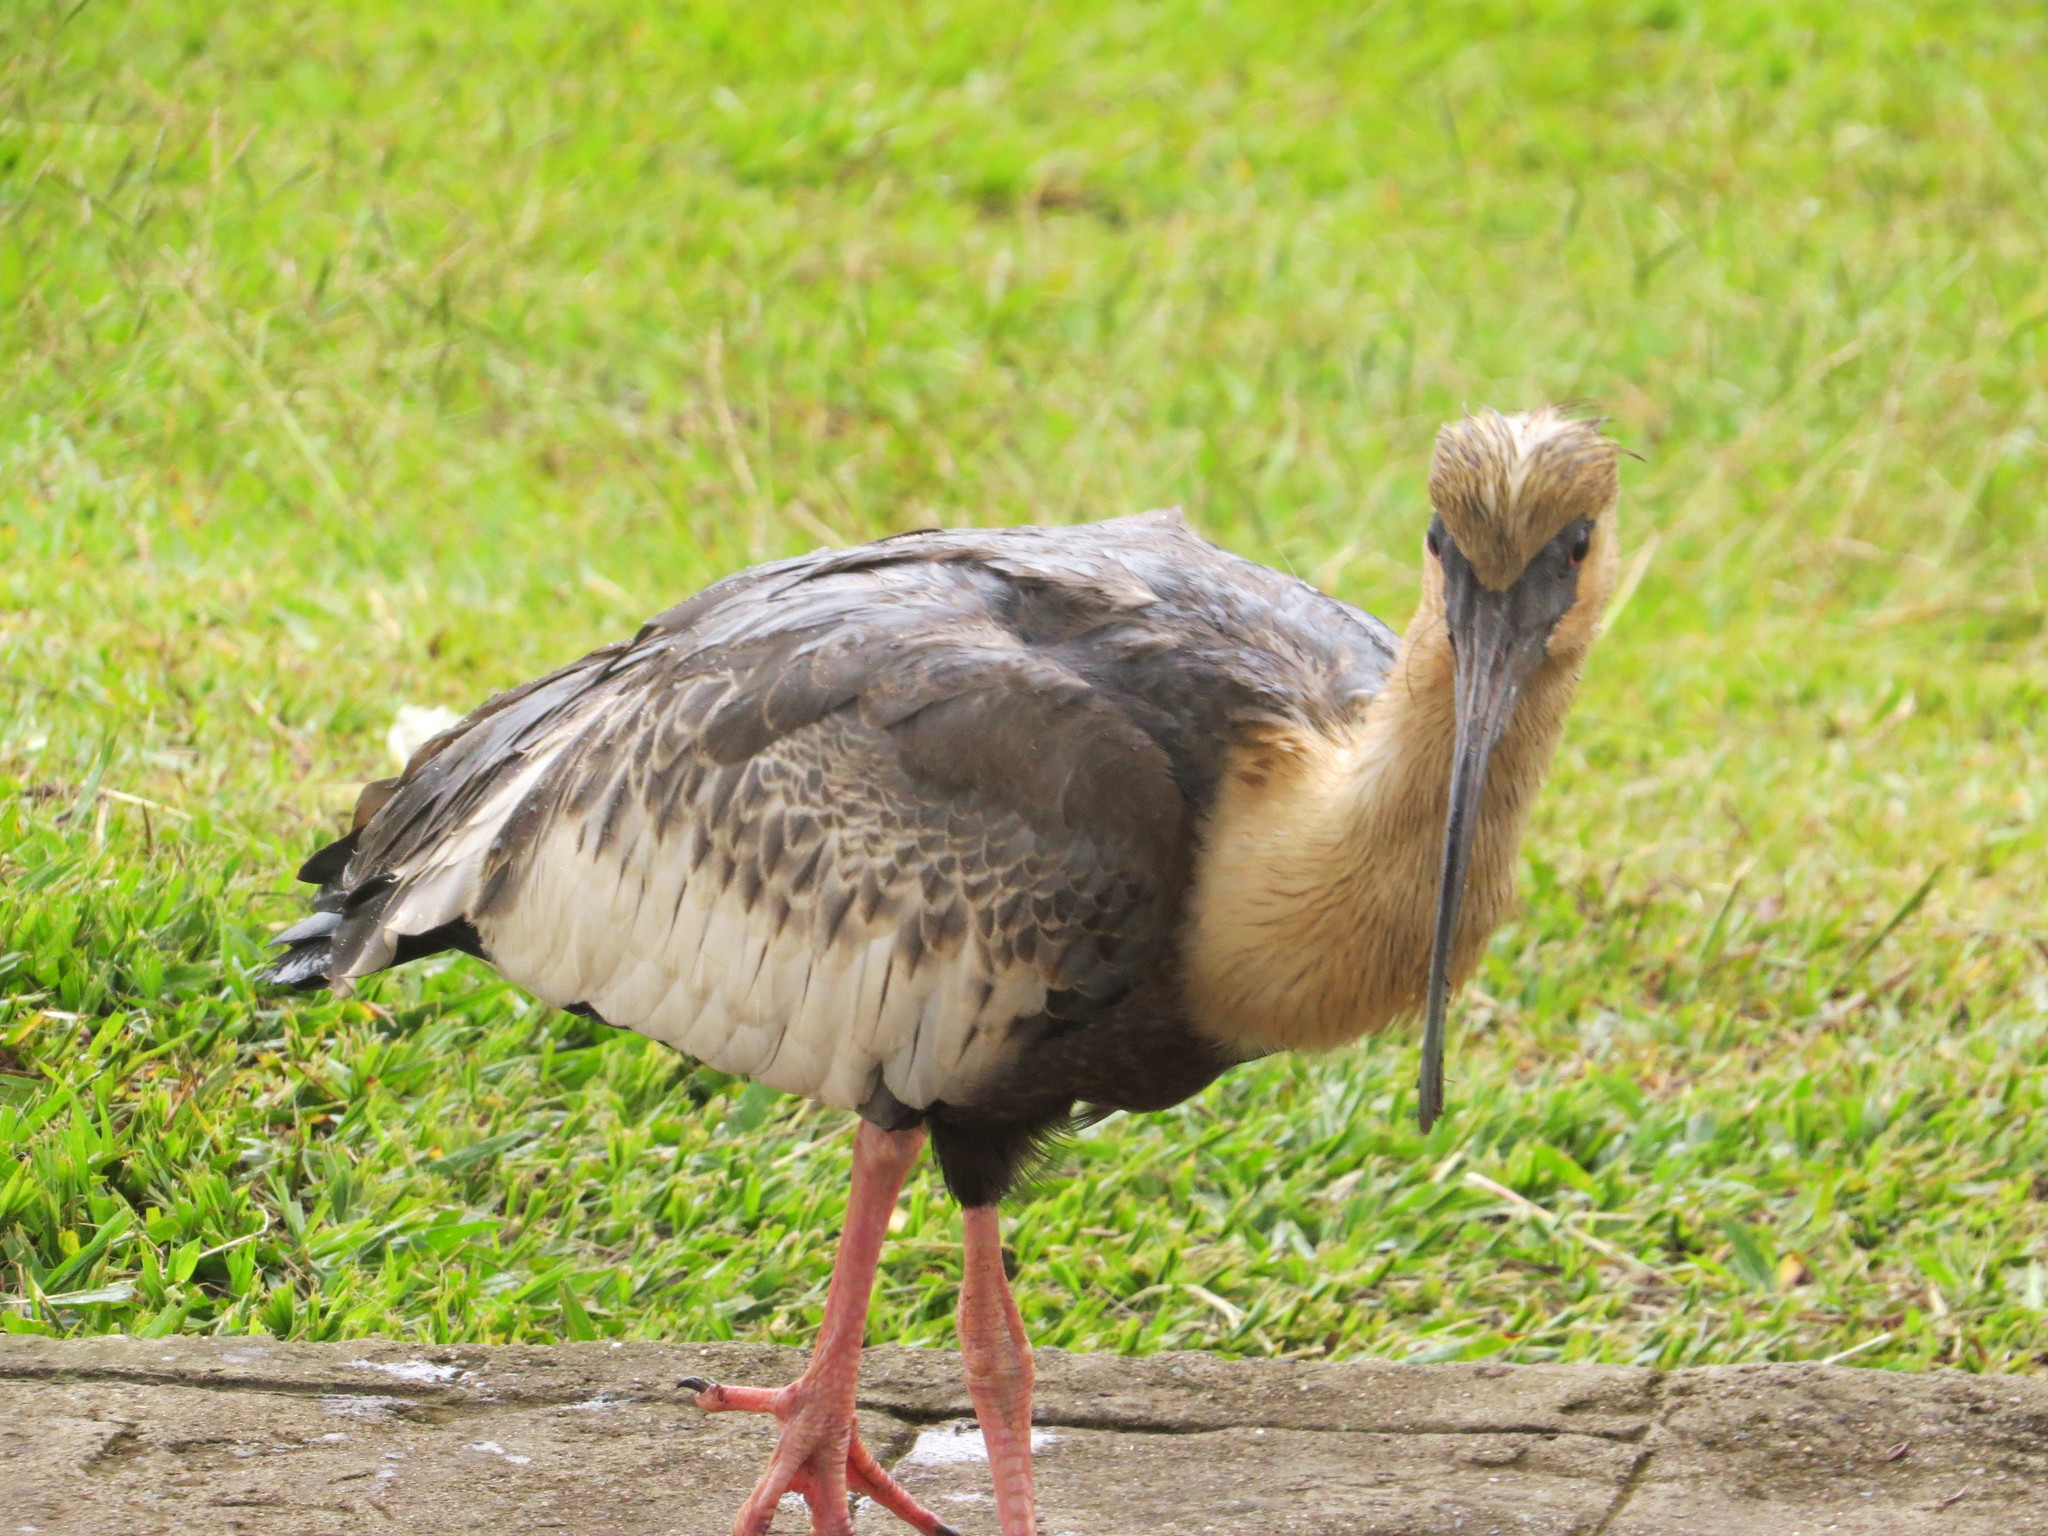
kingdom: Animalia
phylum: Chordata
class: Aves
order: Pelecaniformes
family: Threskiornithidae
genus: Theristicus
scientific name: Theristicus caudatus
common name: Buff-necked ibis
